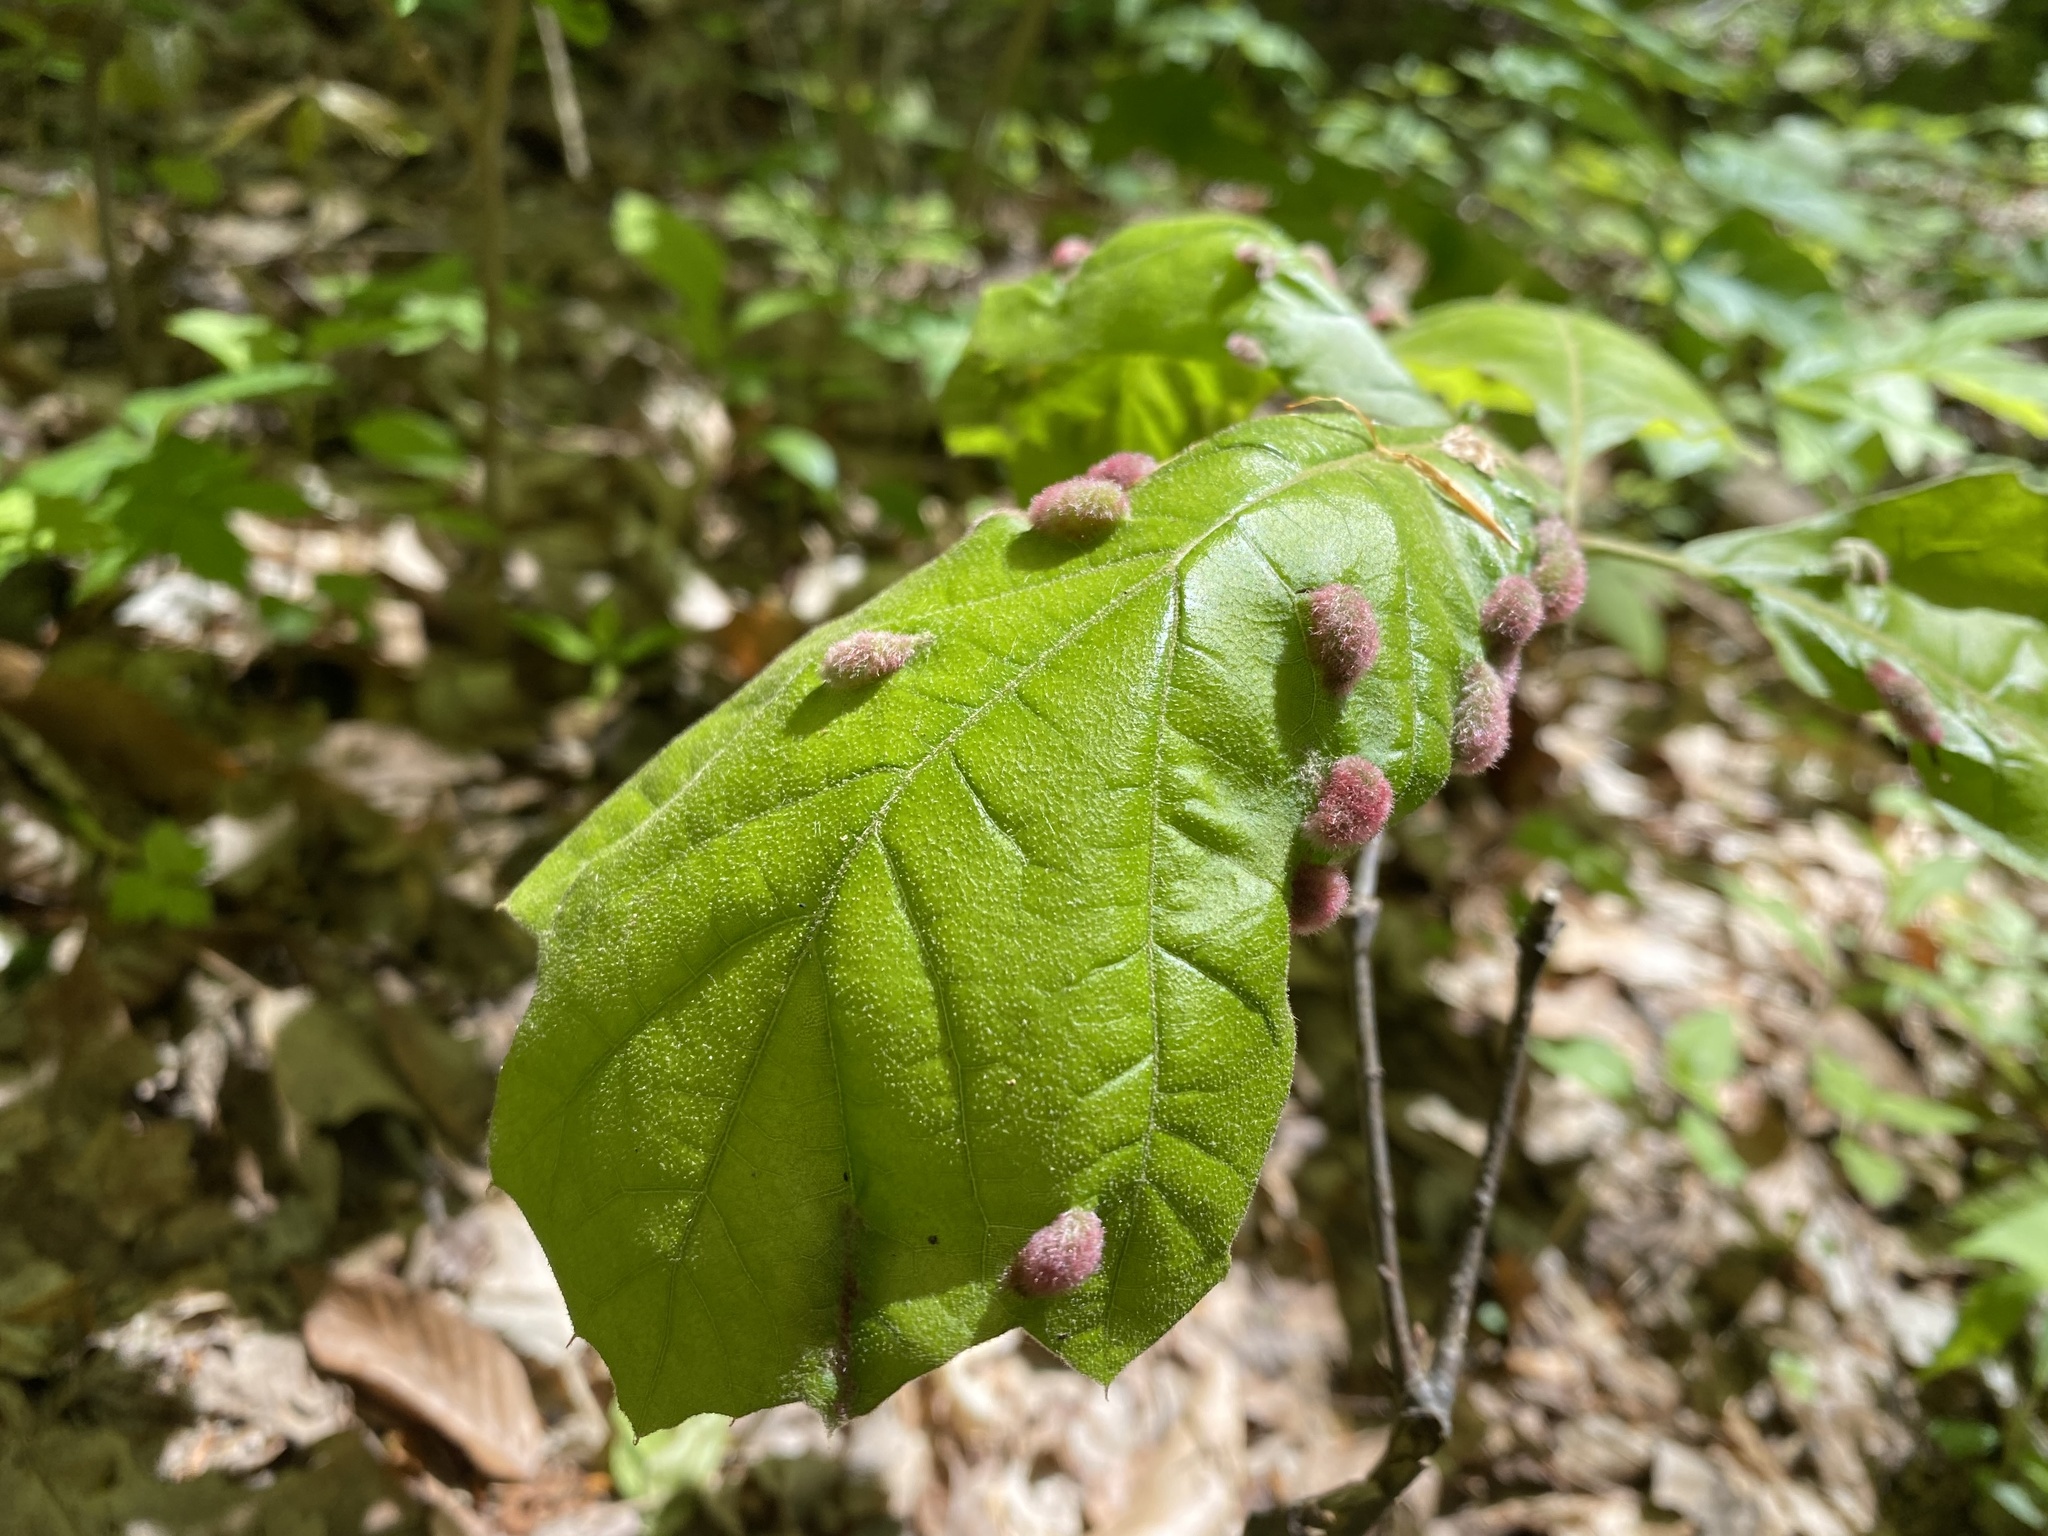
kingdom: Animalia
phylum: Arthropoda
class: Arachnida
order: Trombidiformes
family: Eriophyidae
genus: Aceria
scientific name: Aceria
